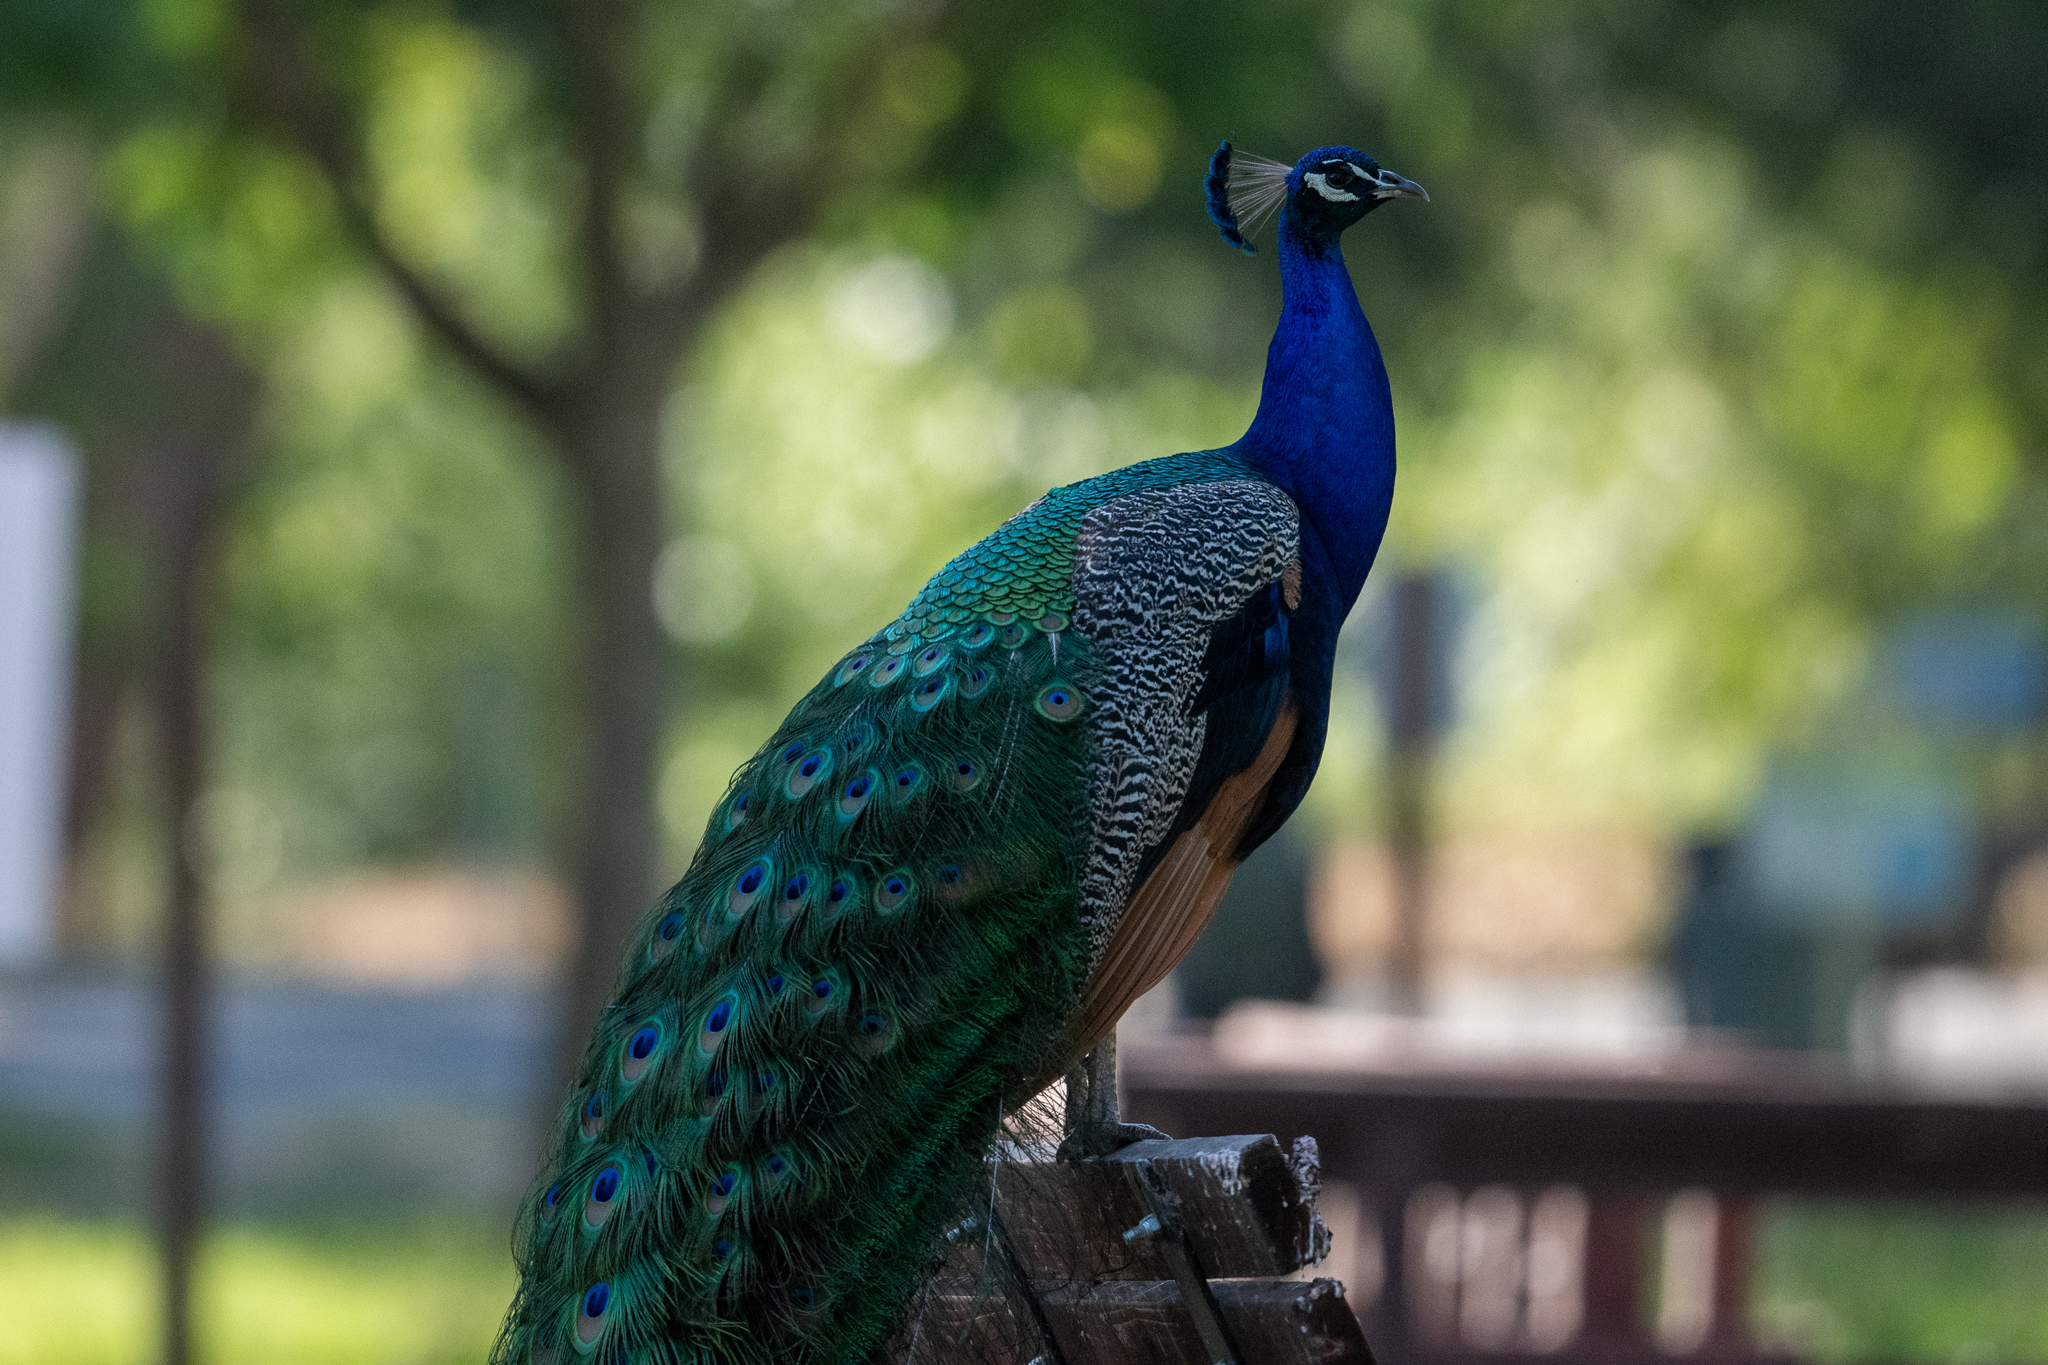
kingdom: Animalia
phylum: Chordata
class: Aves
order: Galliformes
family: Phasianidae
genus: Pavo
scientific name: Pavo cristatus
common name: Indian peafowl
